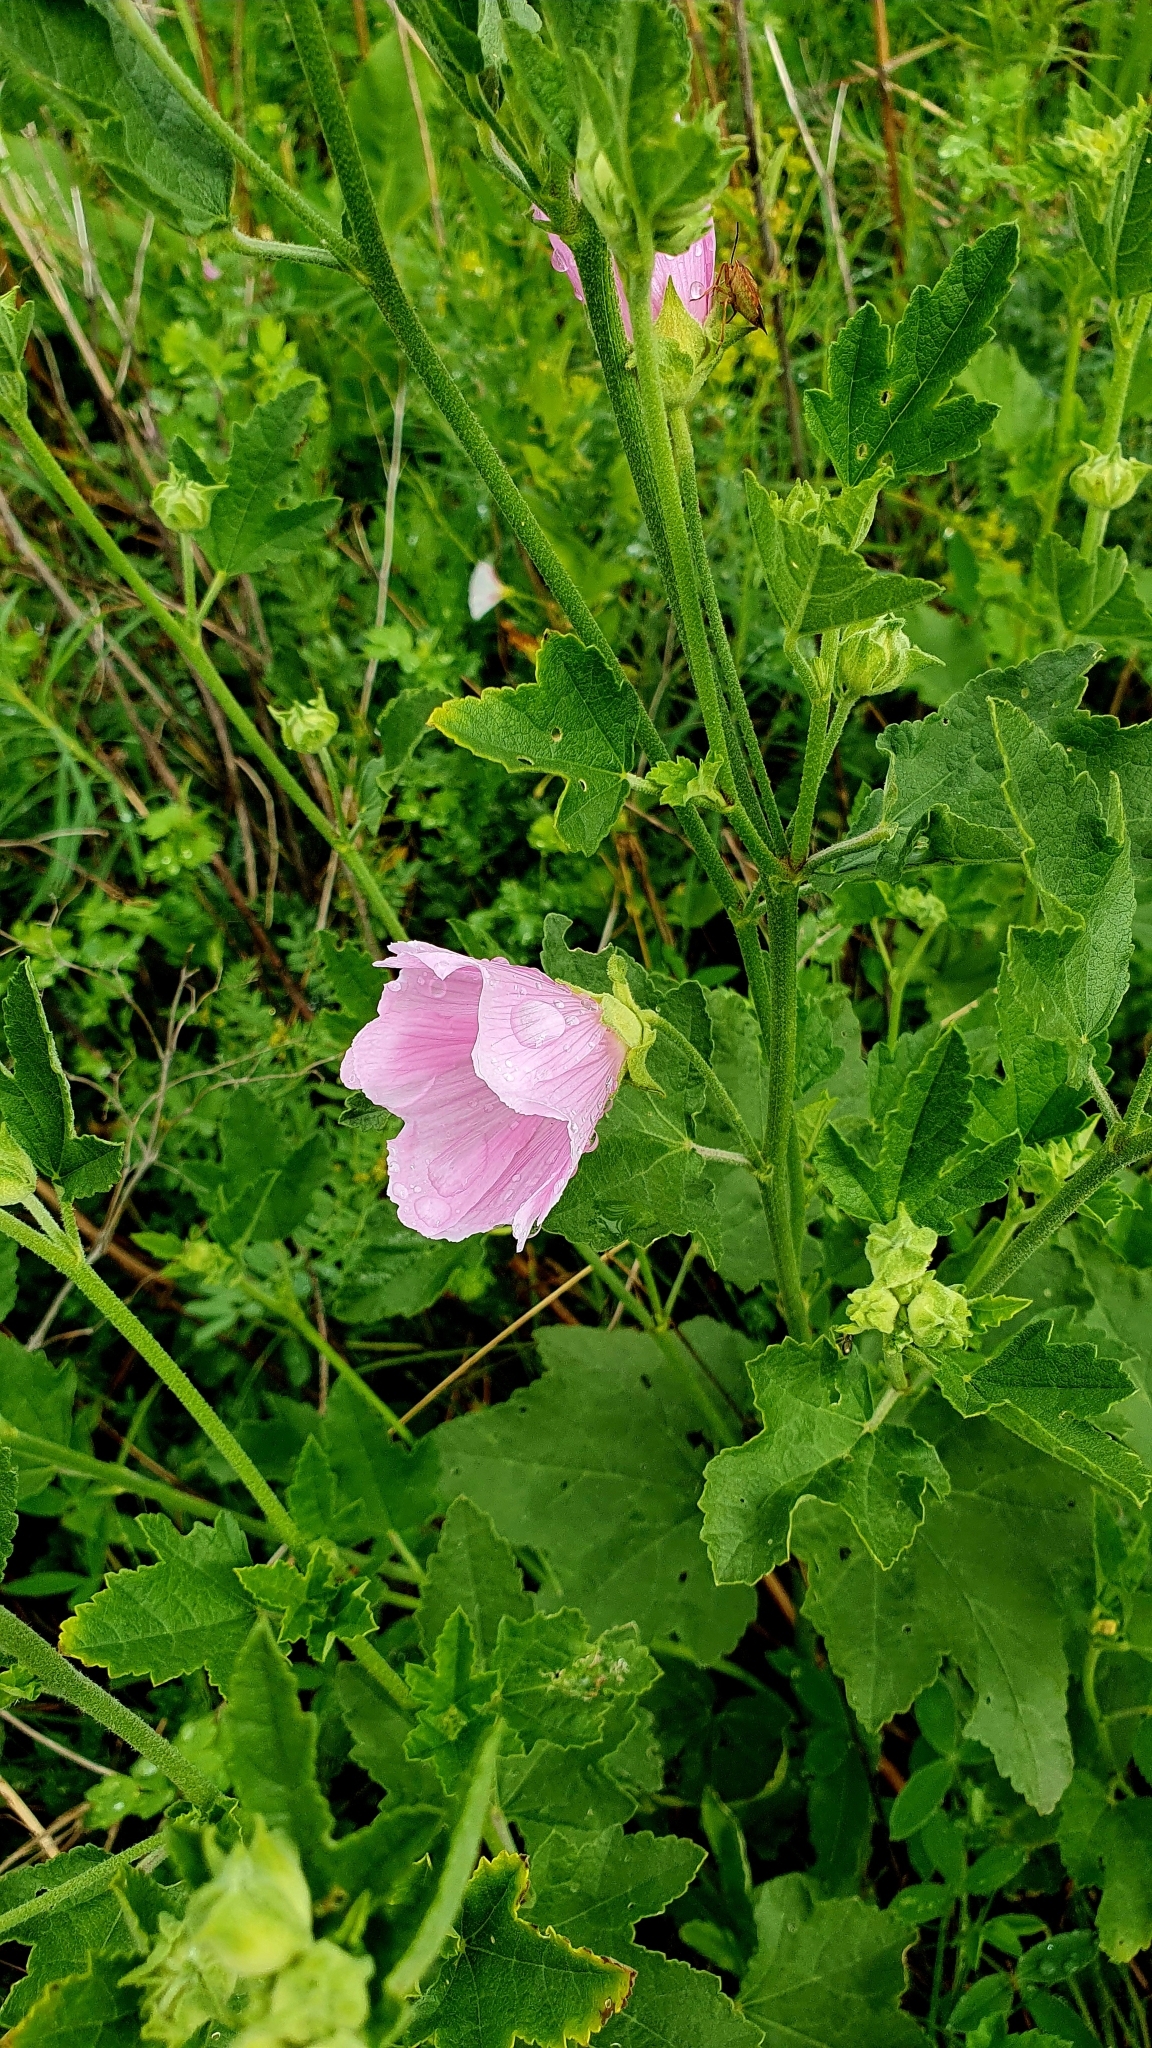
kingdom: Plantae
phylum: Tracheophyta
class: Magnoliopsida
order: Malvales
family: Malvaceae
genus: Malva
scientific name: Malva thuringiaca
